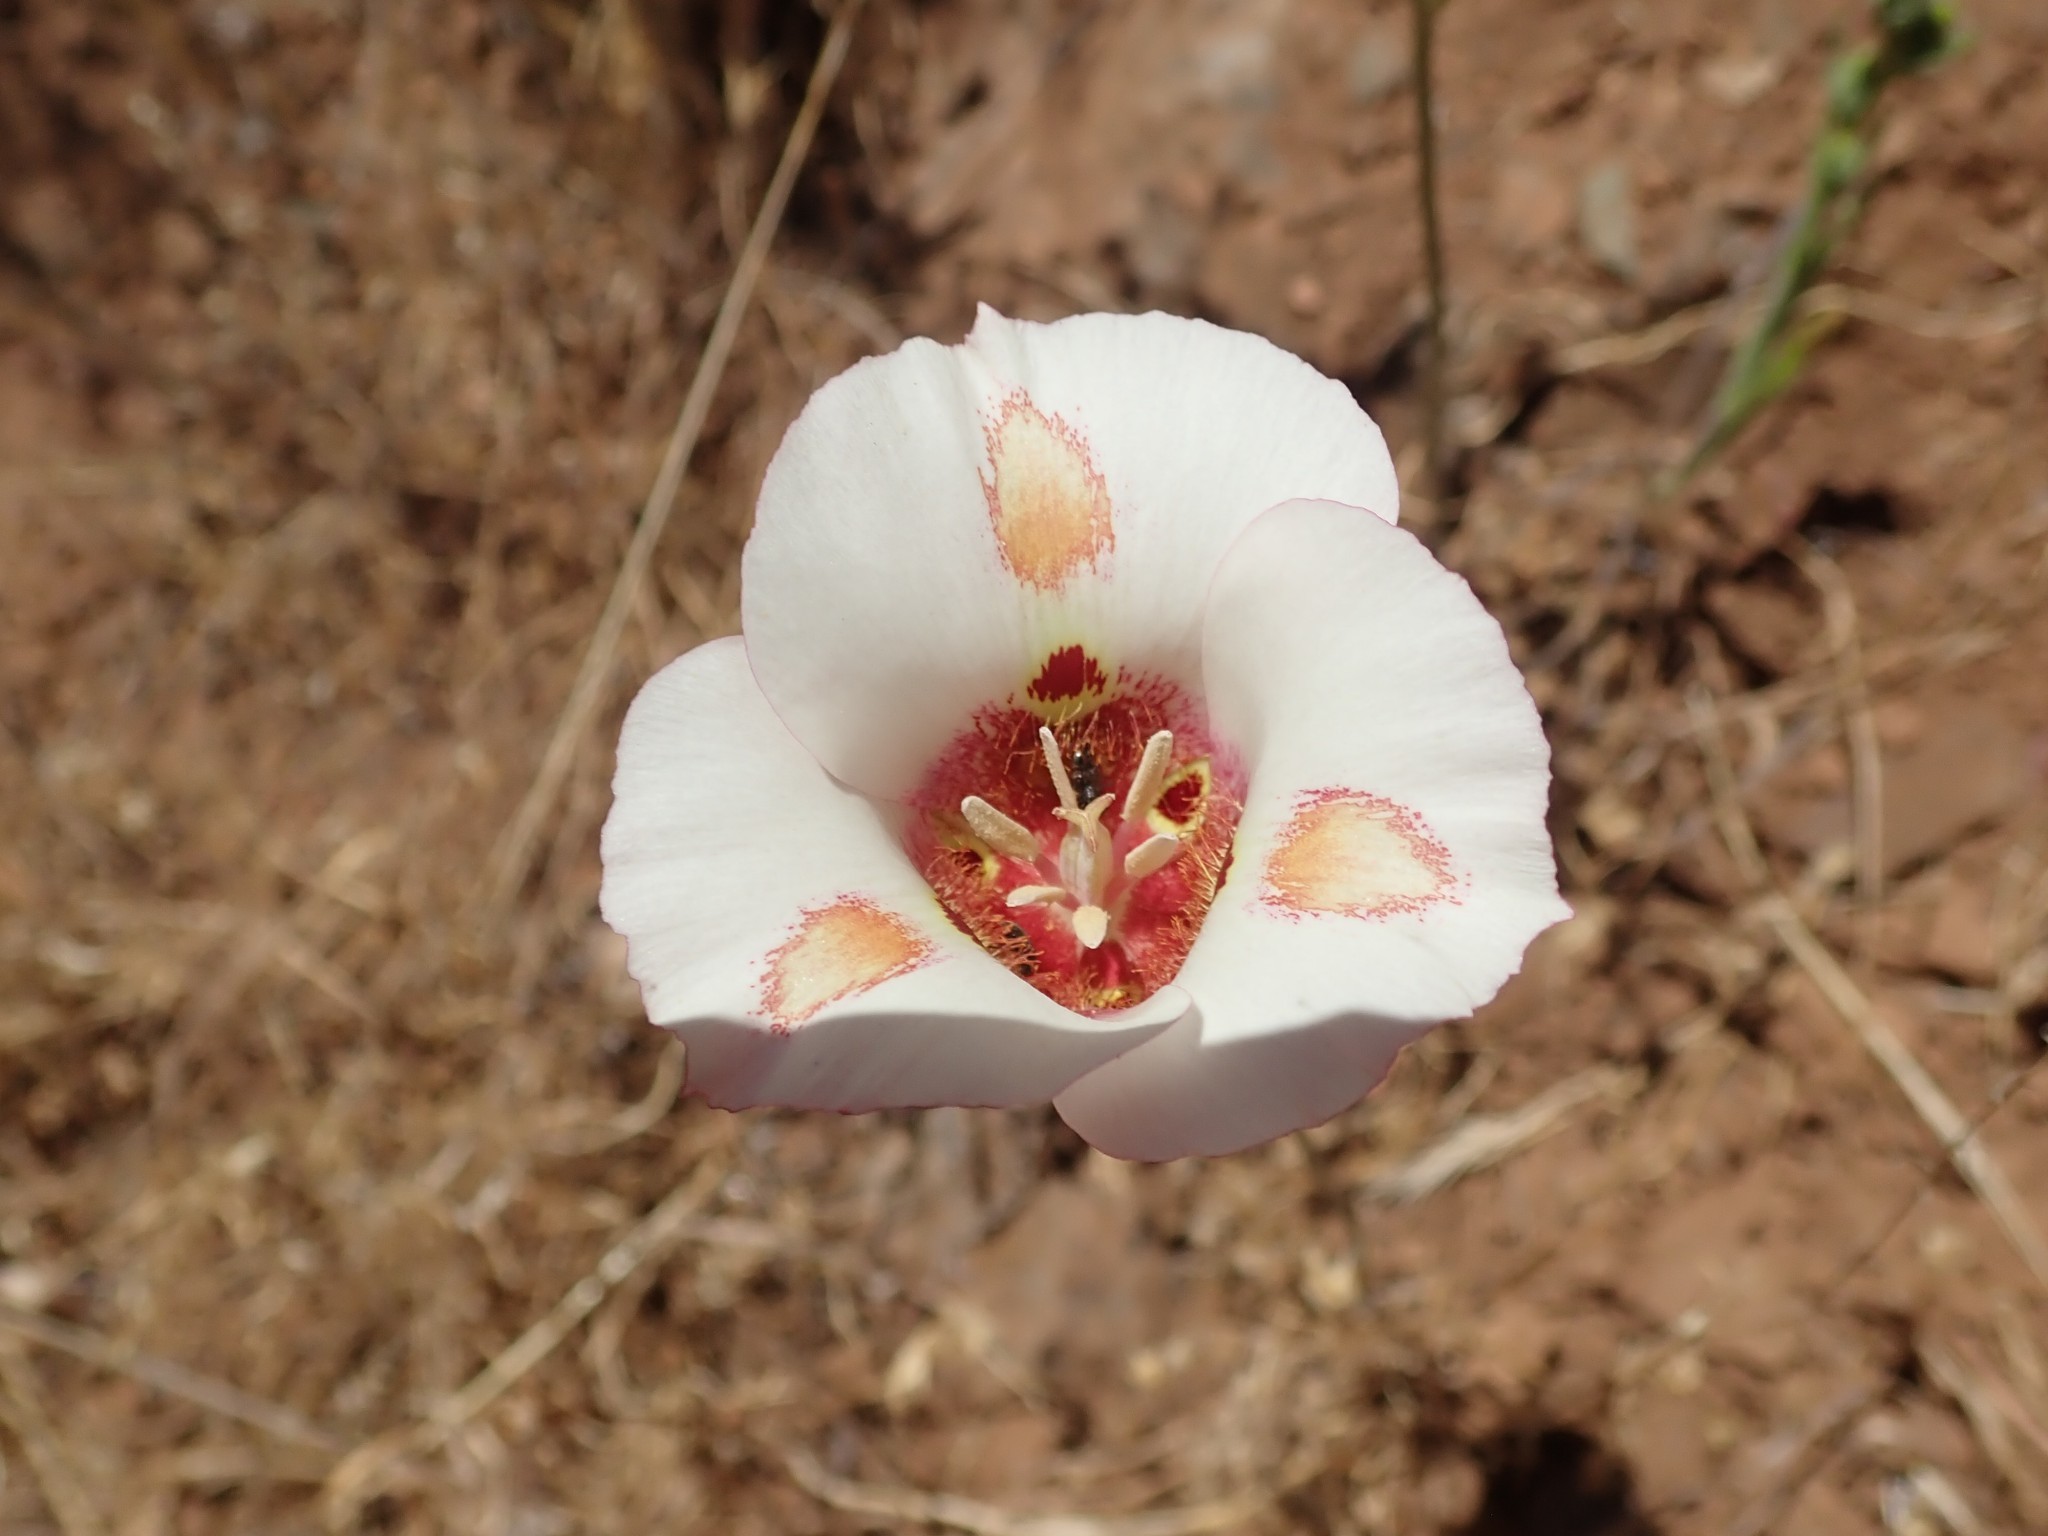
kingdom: Plantae
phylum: Tracheophyta
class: Liliopsida
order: Liliales
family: Liliaceae
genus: Calochortus
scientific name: Calochortus venustus
